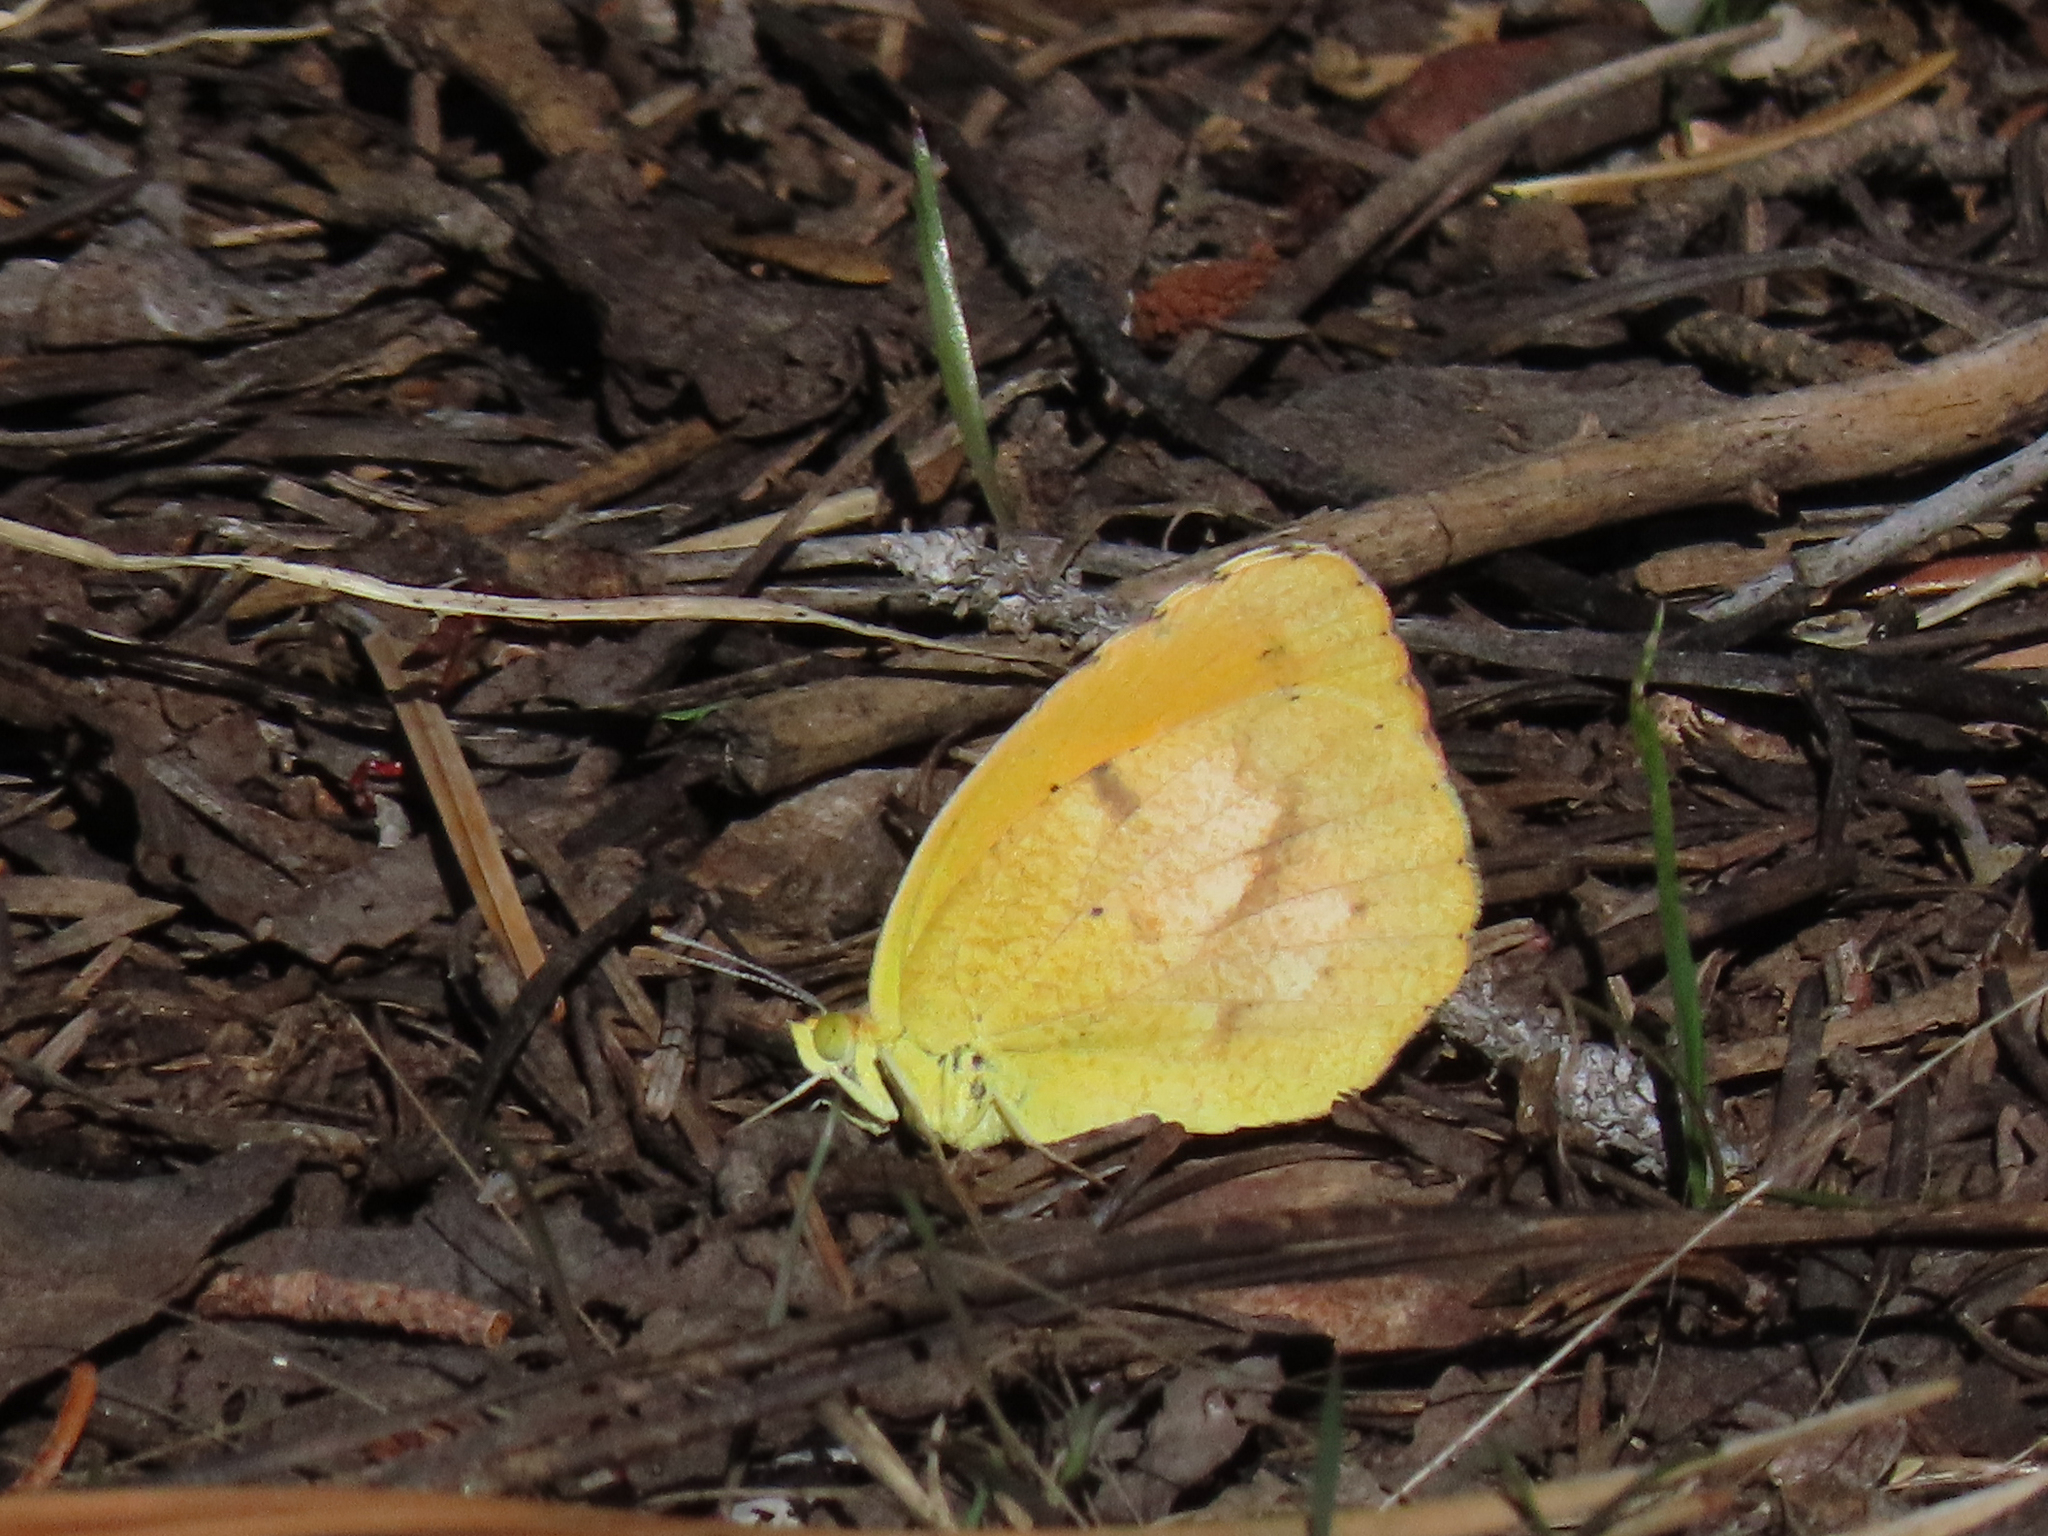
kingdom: Animalia
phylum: Arthropoda
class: Insecta
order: Lepidoptera
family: Pieridae
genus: Abaeis
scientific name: Abaeis nicippe
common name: Sleepy orange
